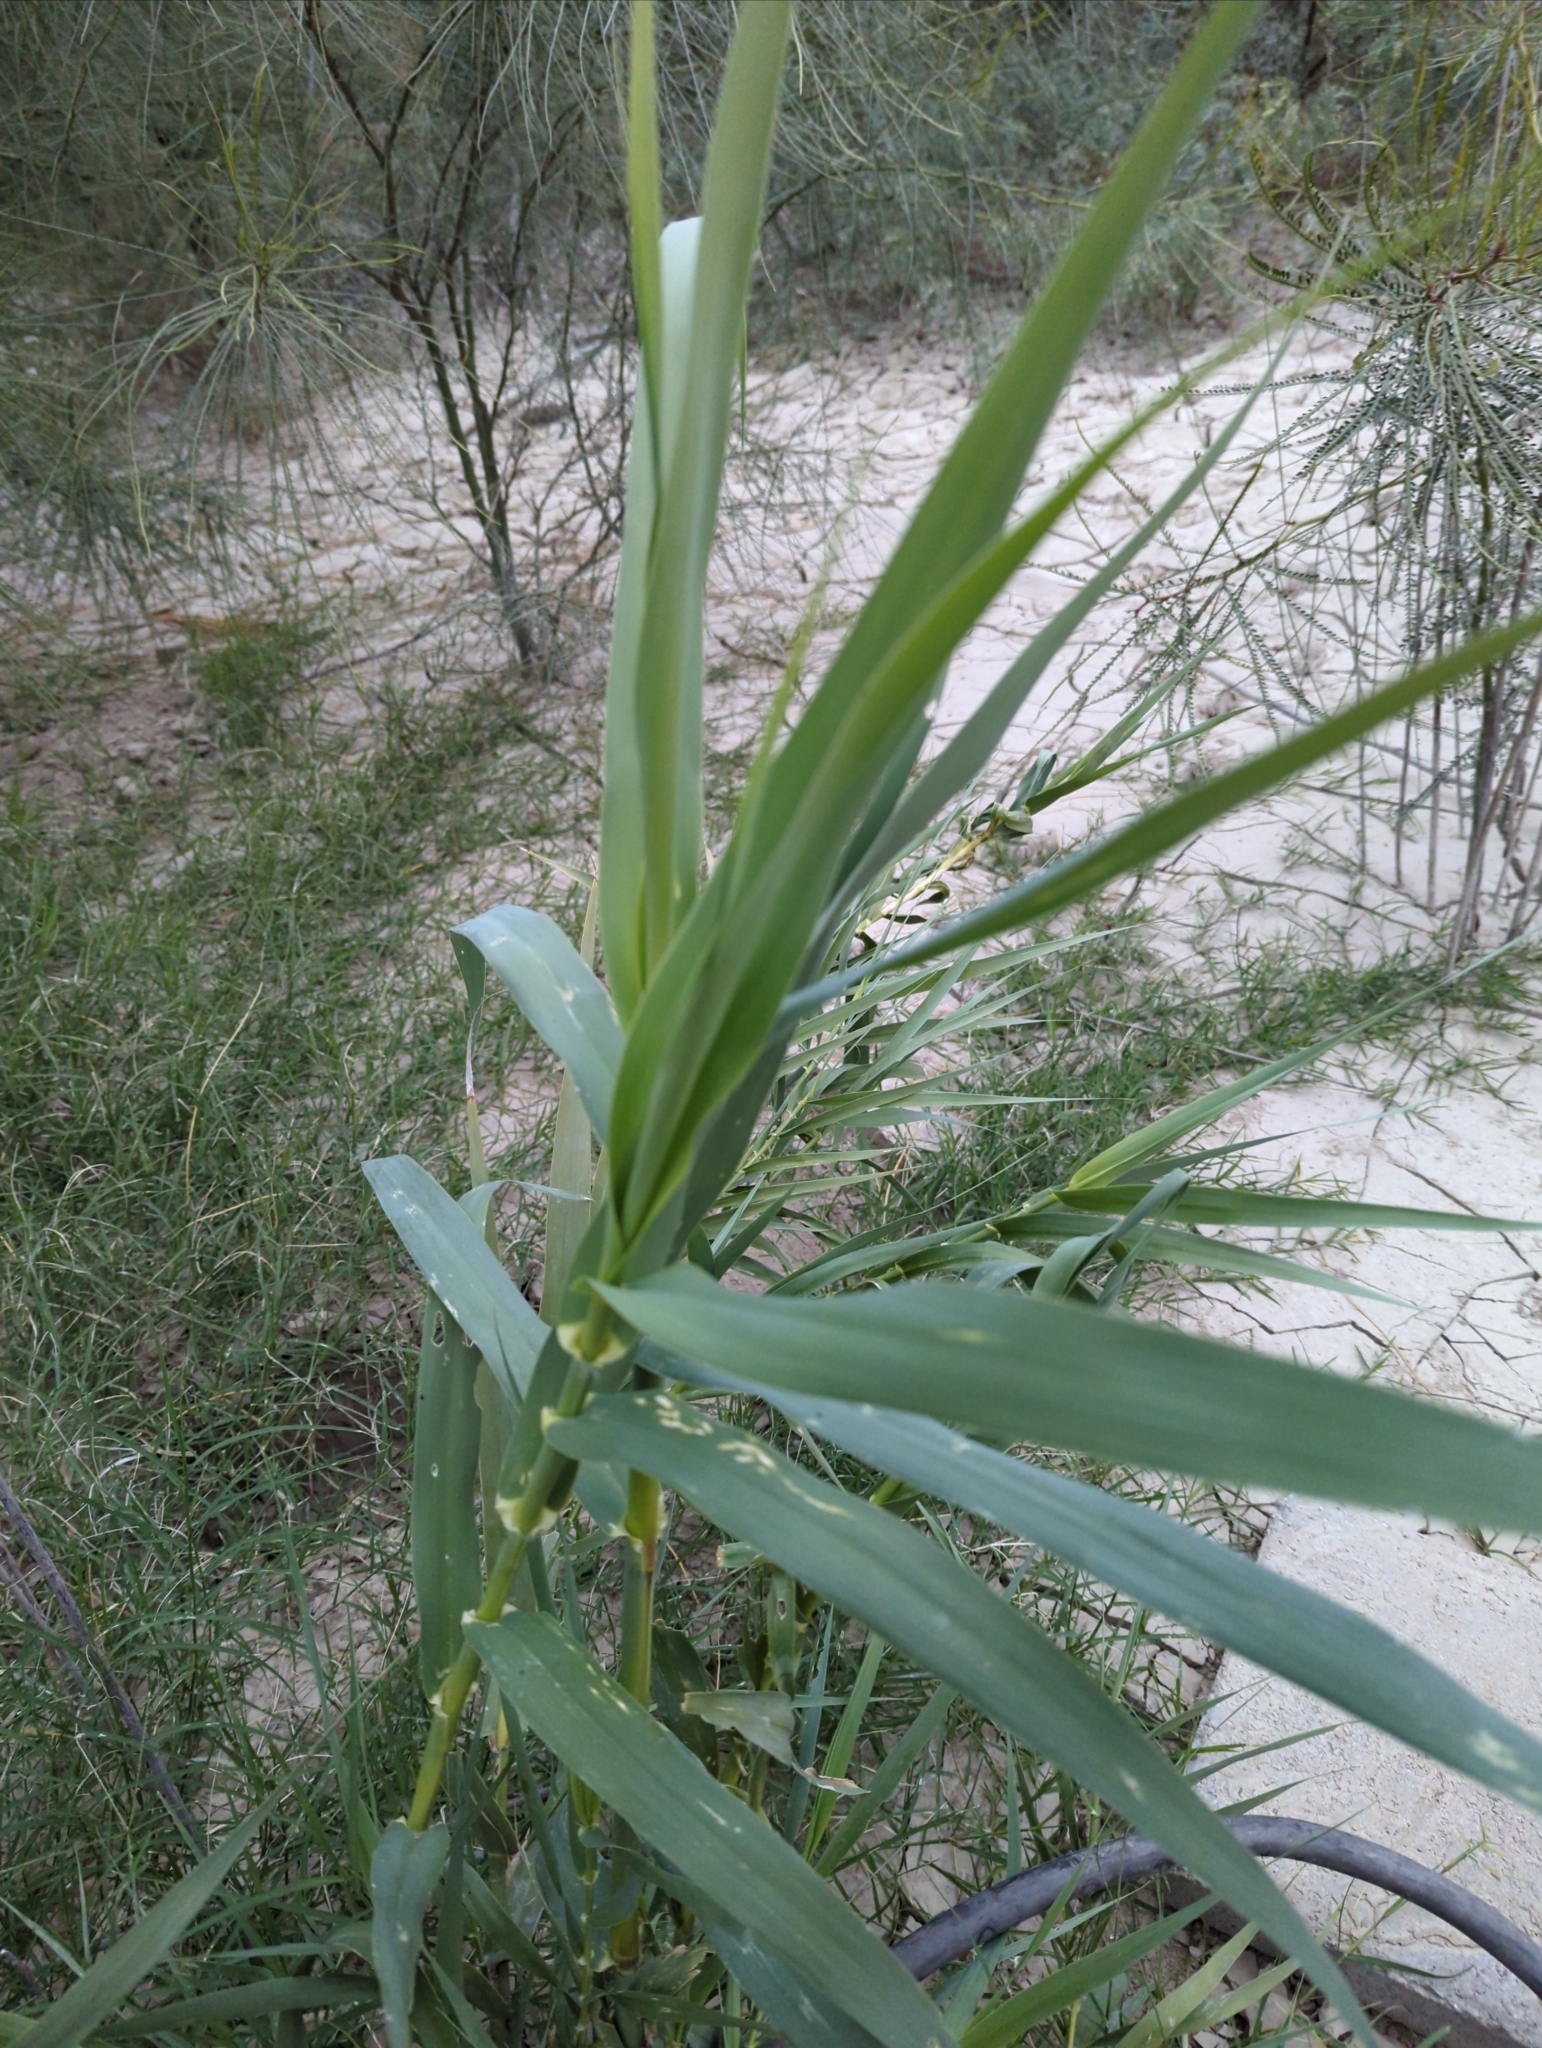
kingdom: Plantae
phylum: Tracheophyta
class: Liliopsida
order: Poales
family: Poaceae
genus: Arundo
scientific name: Arundo donax
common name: Giant reed
